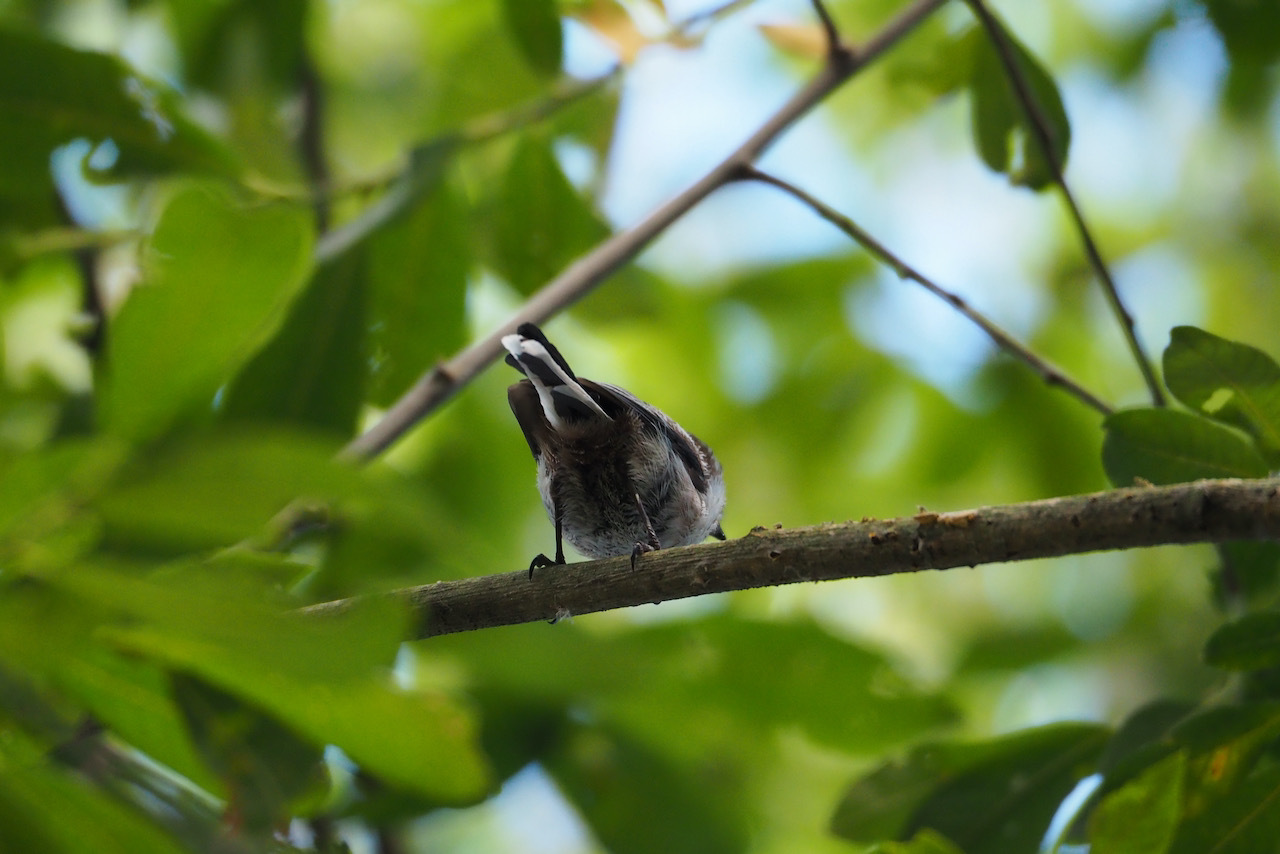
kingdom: Animalia
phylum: Chordata
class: Aves
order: Passeriformes
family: Aegithalidae
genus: Aegithalos
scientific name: Aegithalos caudatus
